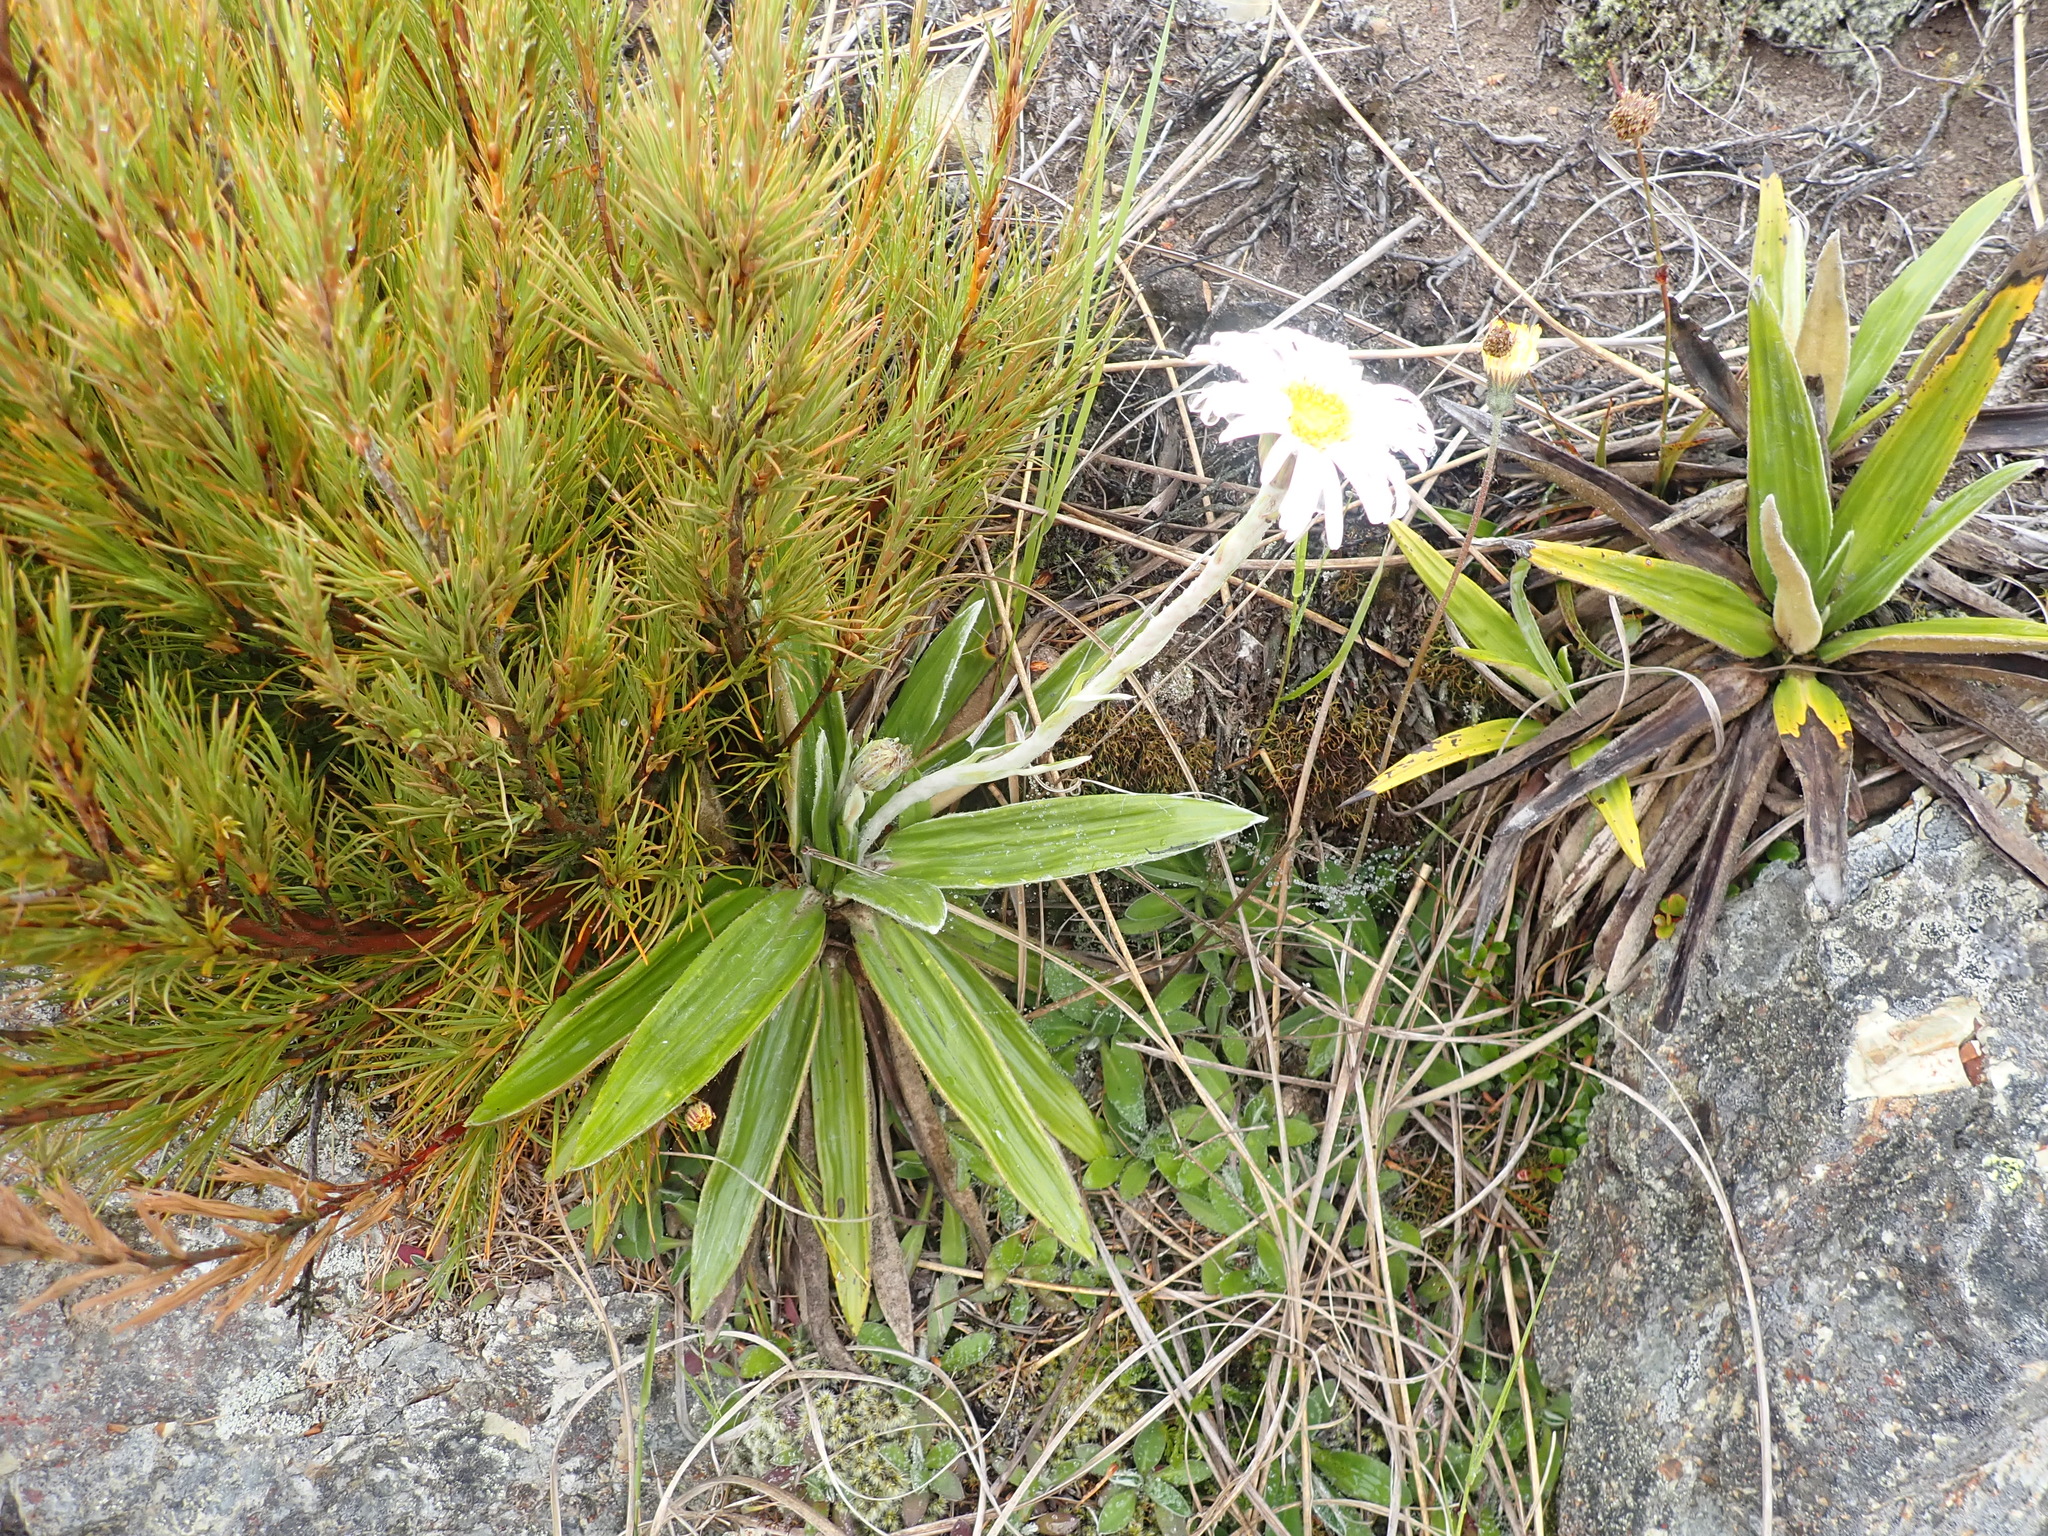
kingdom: Plantae
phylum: Tracheophyta
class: Magnoliopsida
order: Asterales
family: Asteraceae
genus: Celmisia
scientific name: Celmisia spectabilis
